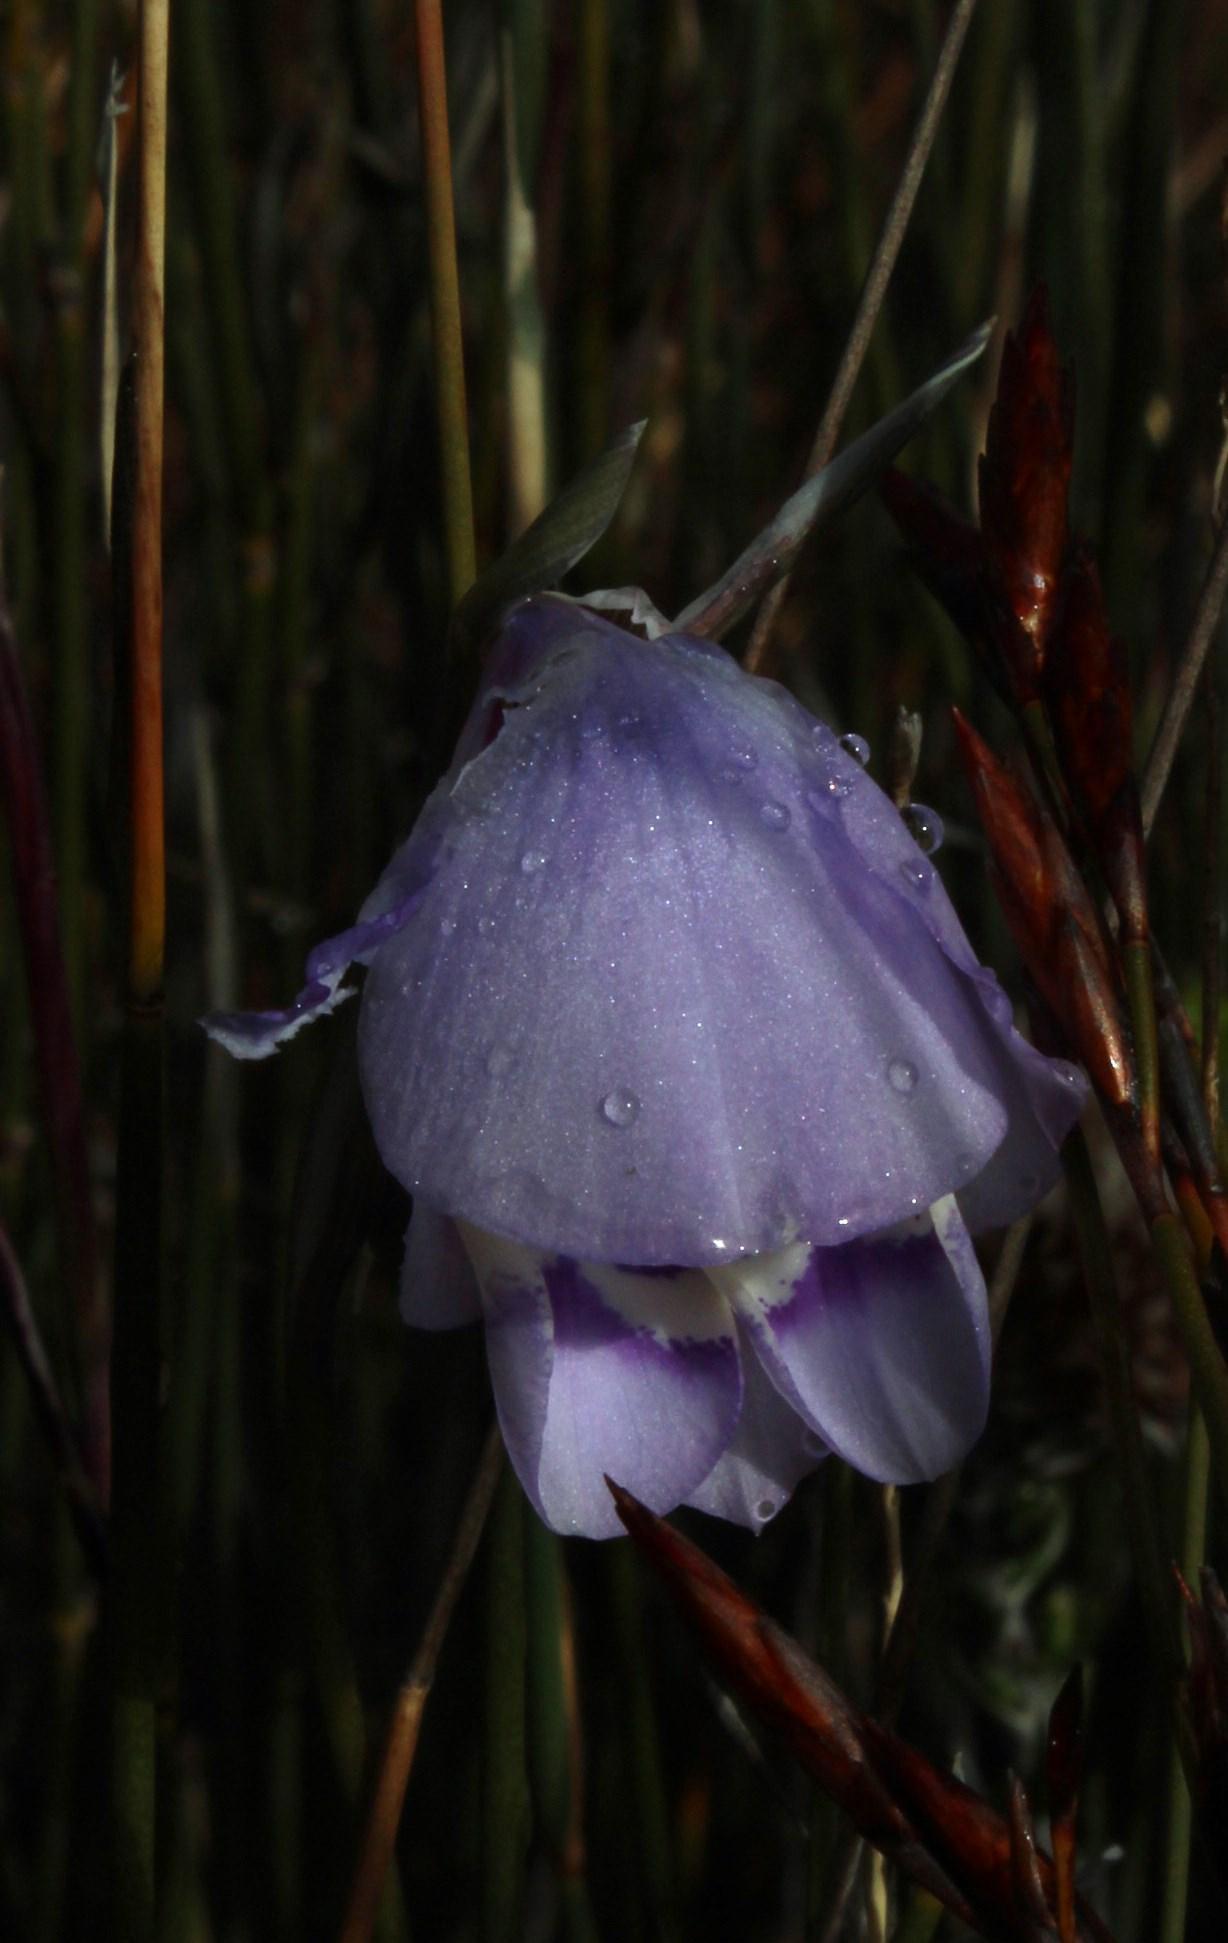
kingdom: Plantae
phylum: Tracheophyta
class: Liliopsida
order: Asparagales
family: Iridaceae
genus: Gladiolus
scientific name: Gladiolus rogersii
